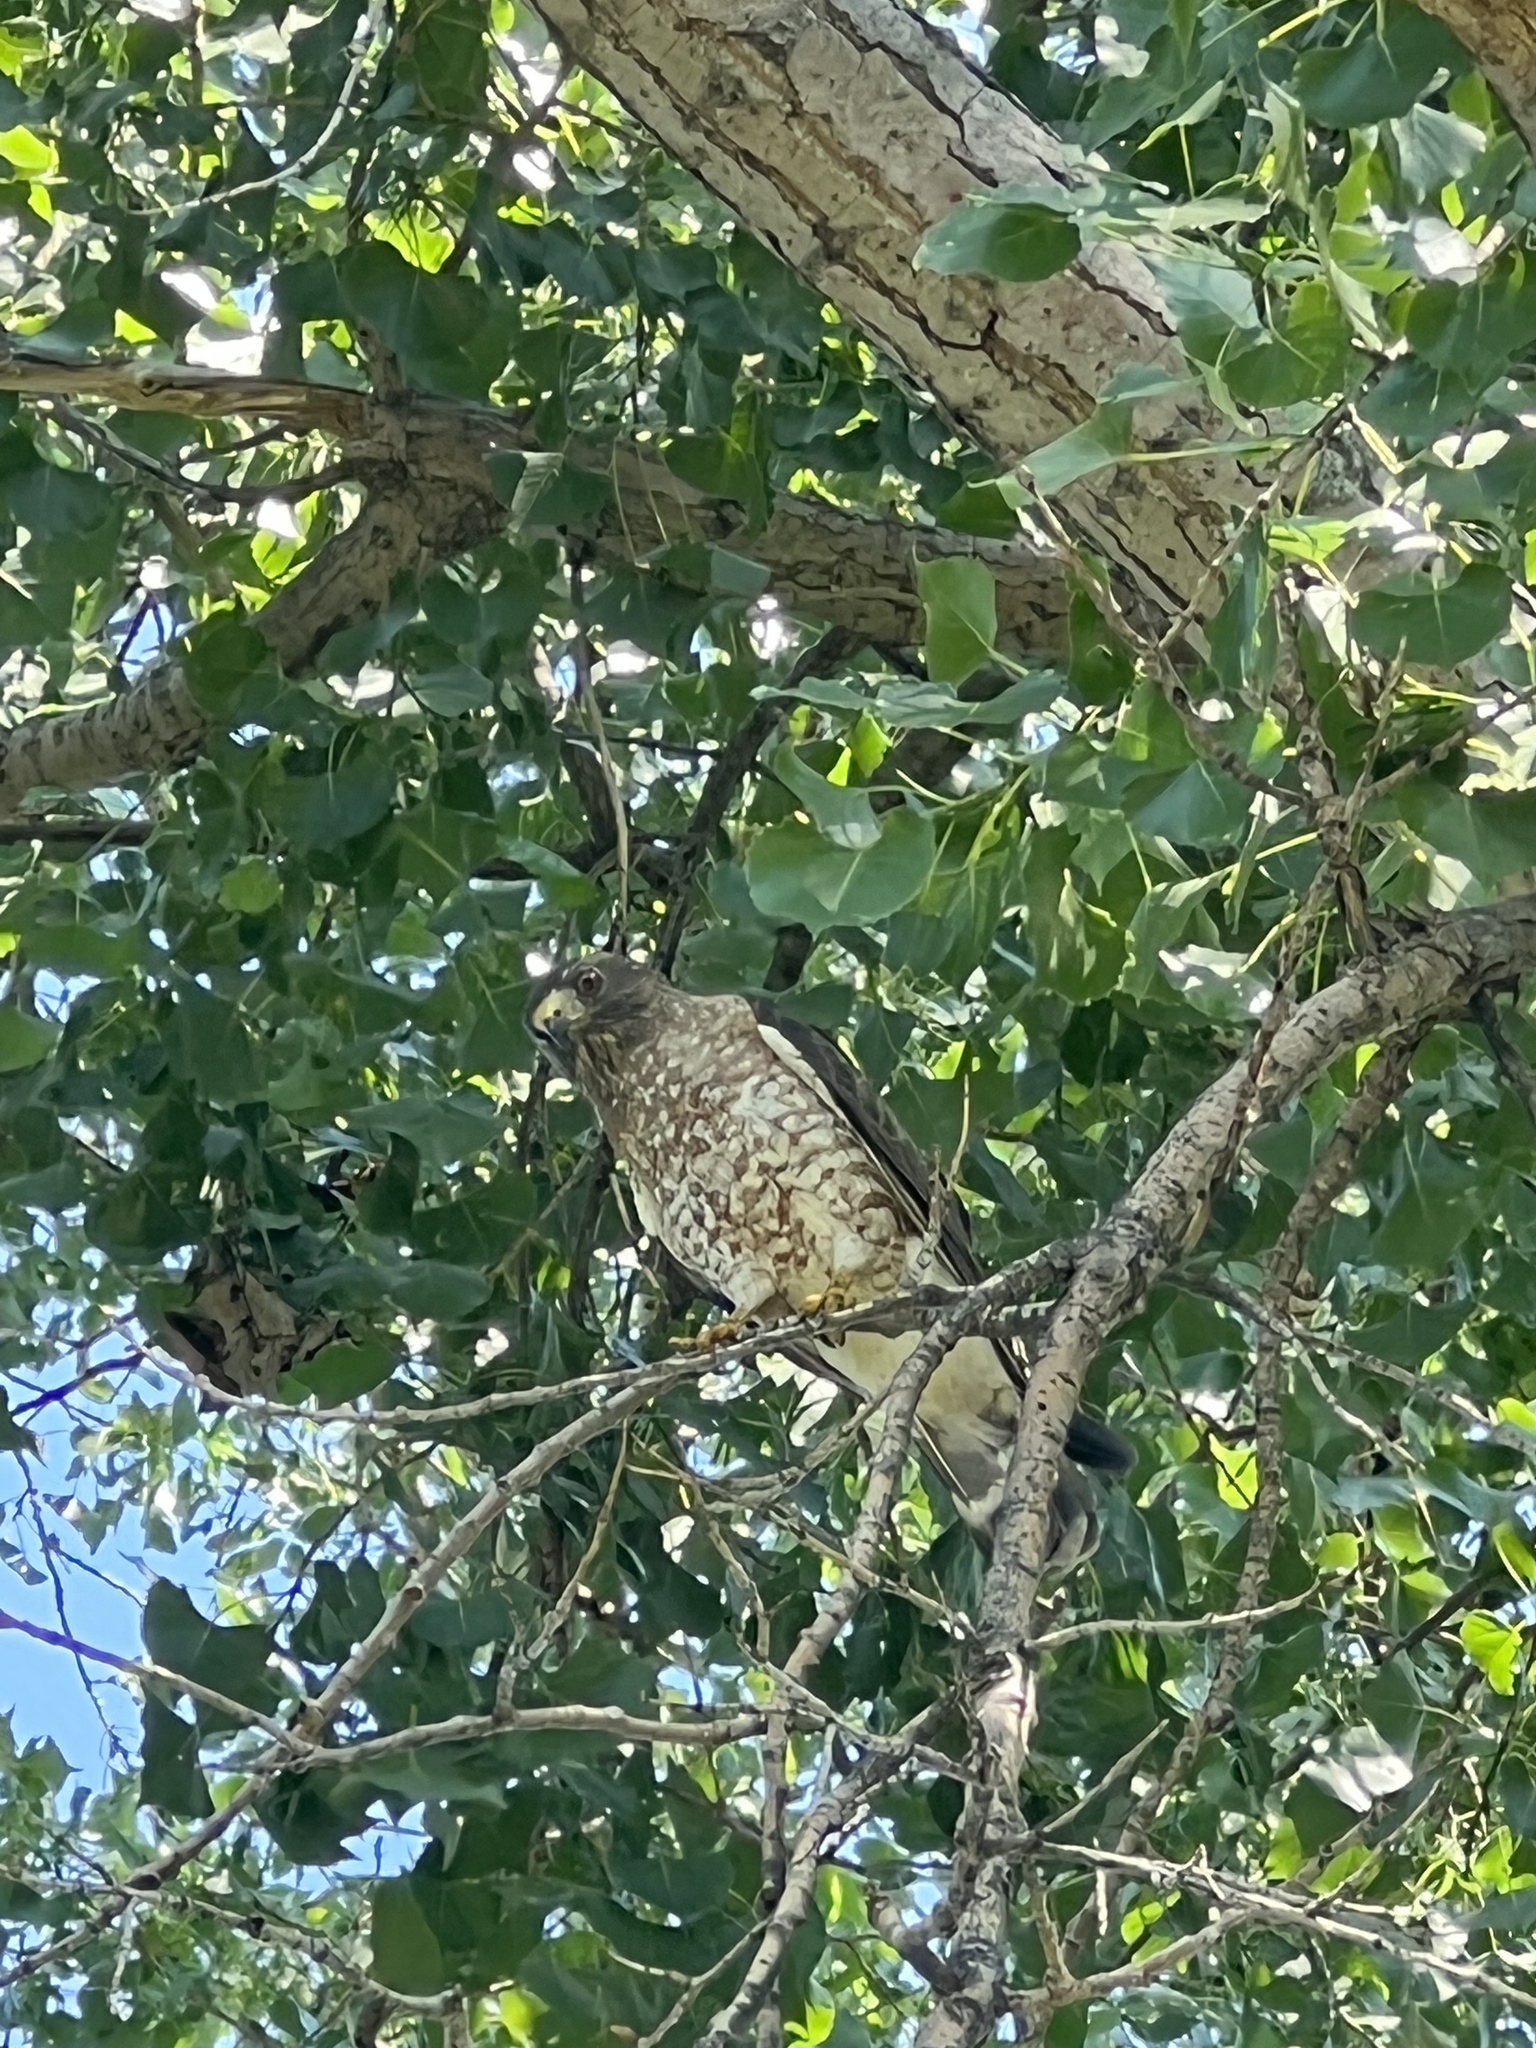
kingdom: Animalia
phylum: Chordata
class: Aves
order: Accipitriformes
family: Accipitridae
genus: Buteo
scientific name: Buteo platypterus
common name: Broad-winged hawk
